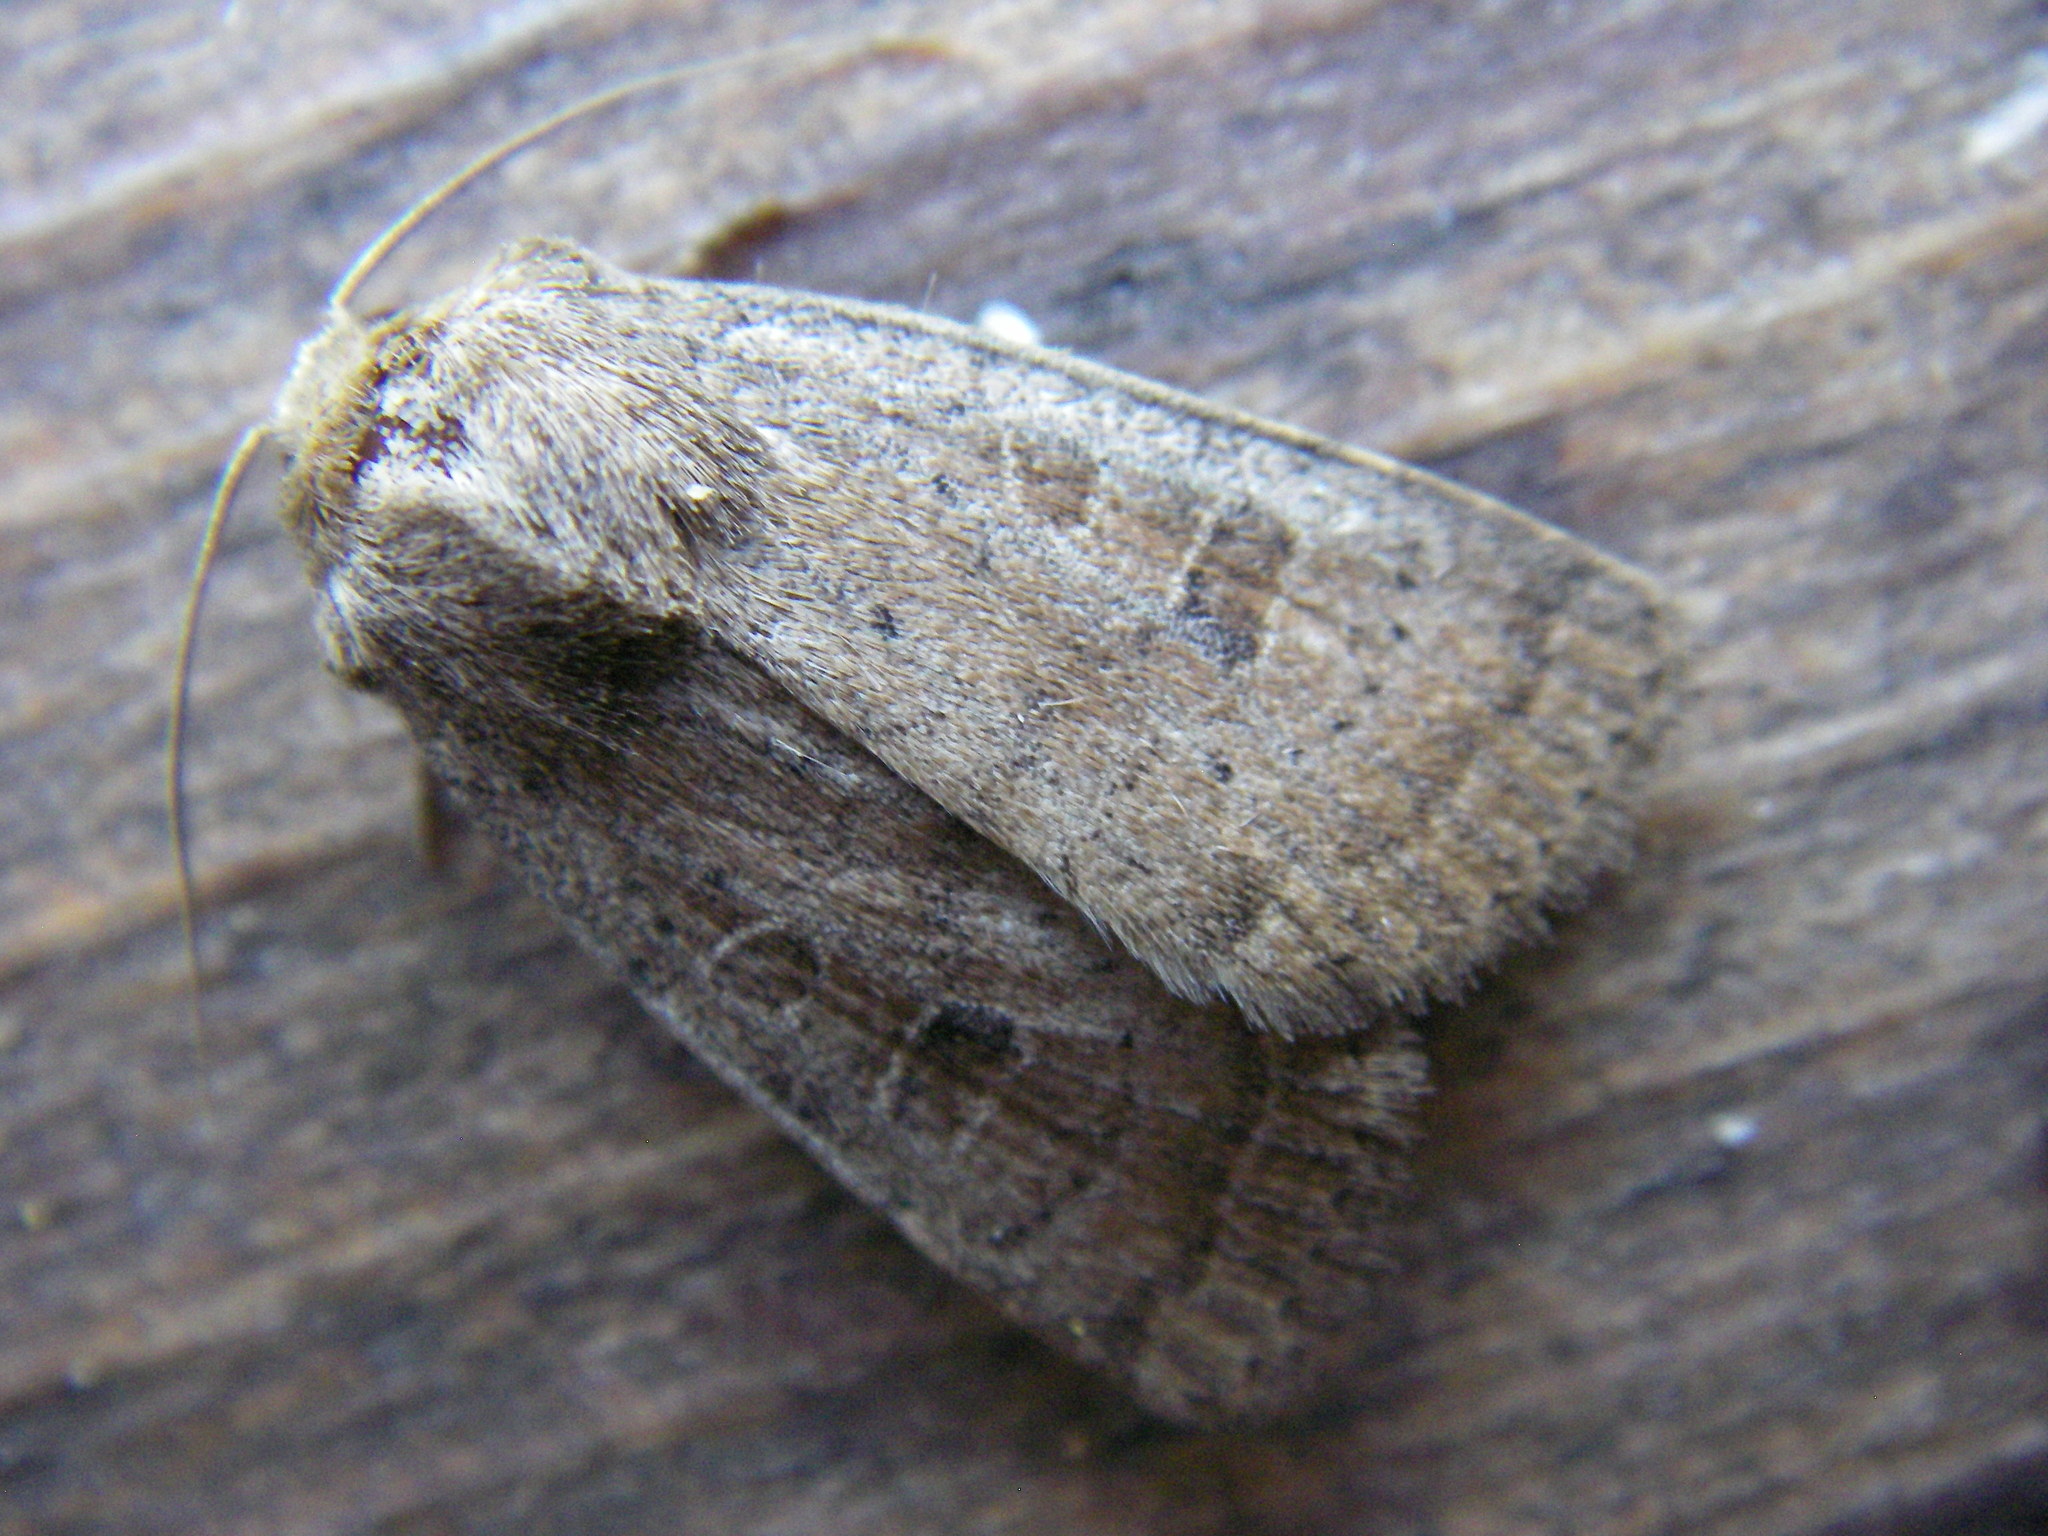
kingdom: Animalia
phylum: Arthropoda
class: Insecta
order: Lepidoptera
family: Noctuidae
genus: Hoplodrina
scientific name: Hoplodrina octogenaria
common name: Uncertain
